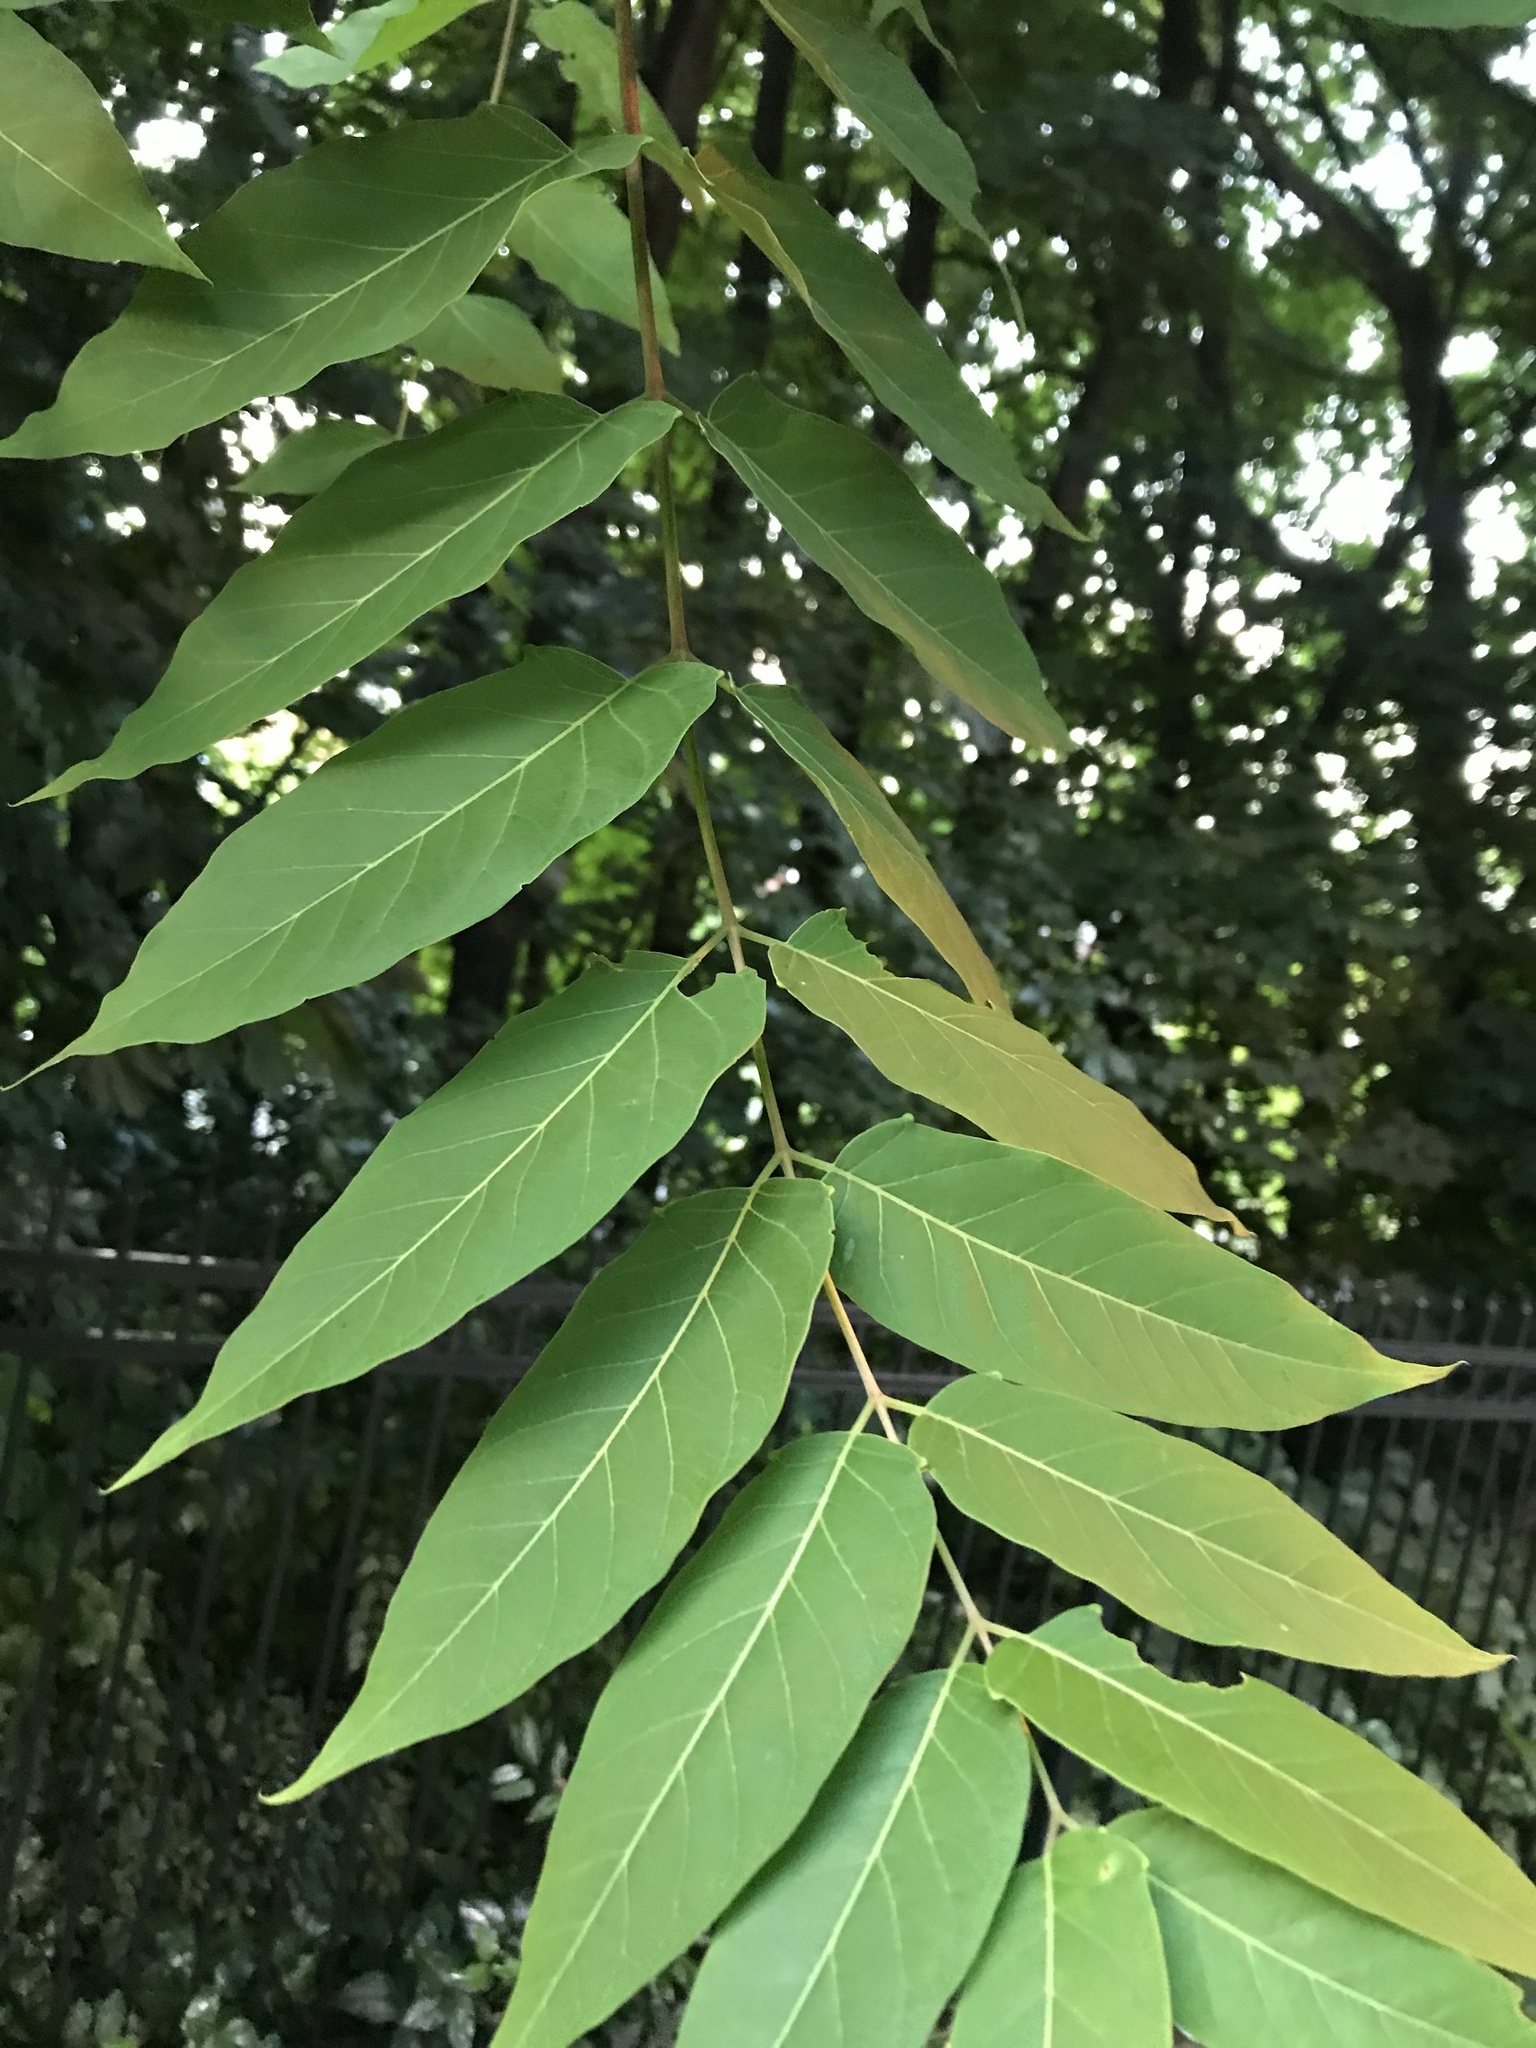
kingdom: Plantae
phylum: Tracheophyta
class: Magnoliopsida
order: Sapindales
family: Simaroubaceae
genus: Ailanthus
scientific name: Ailanthus altissima
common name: Tree-of-heaven
